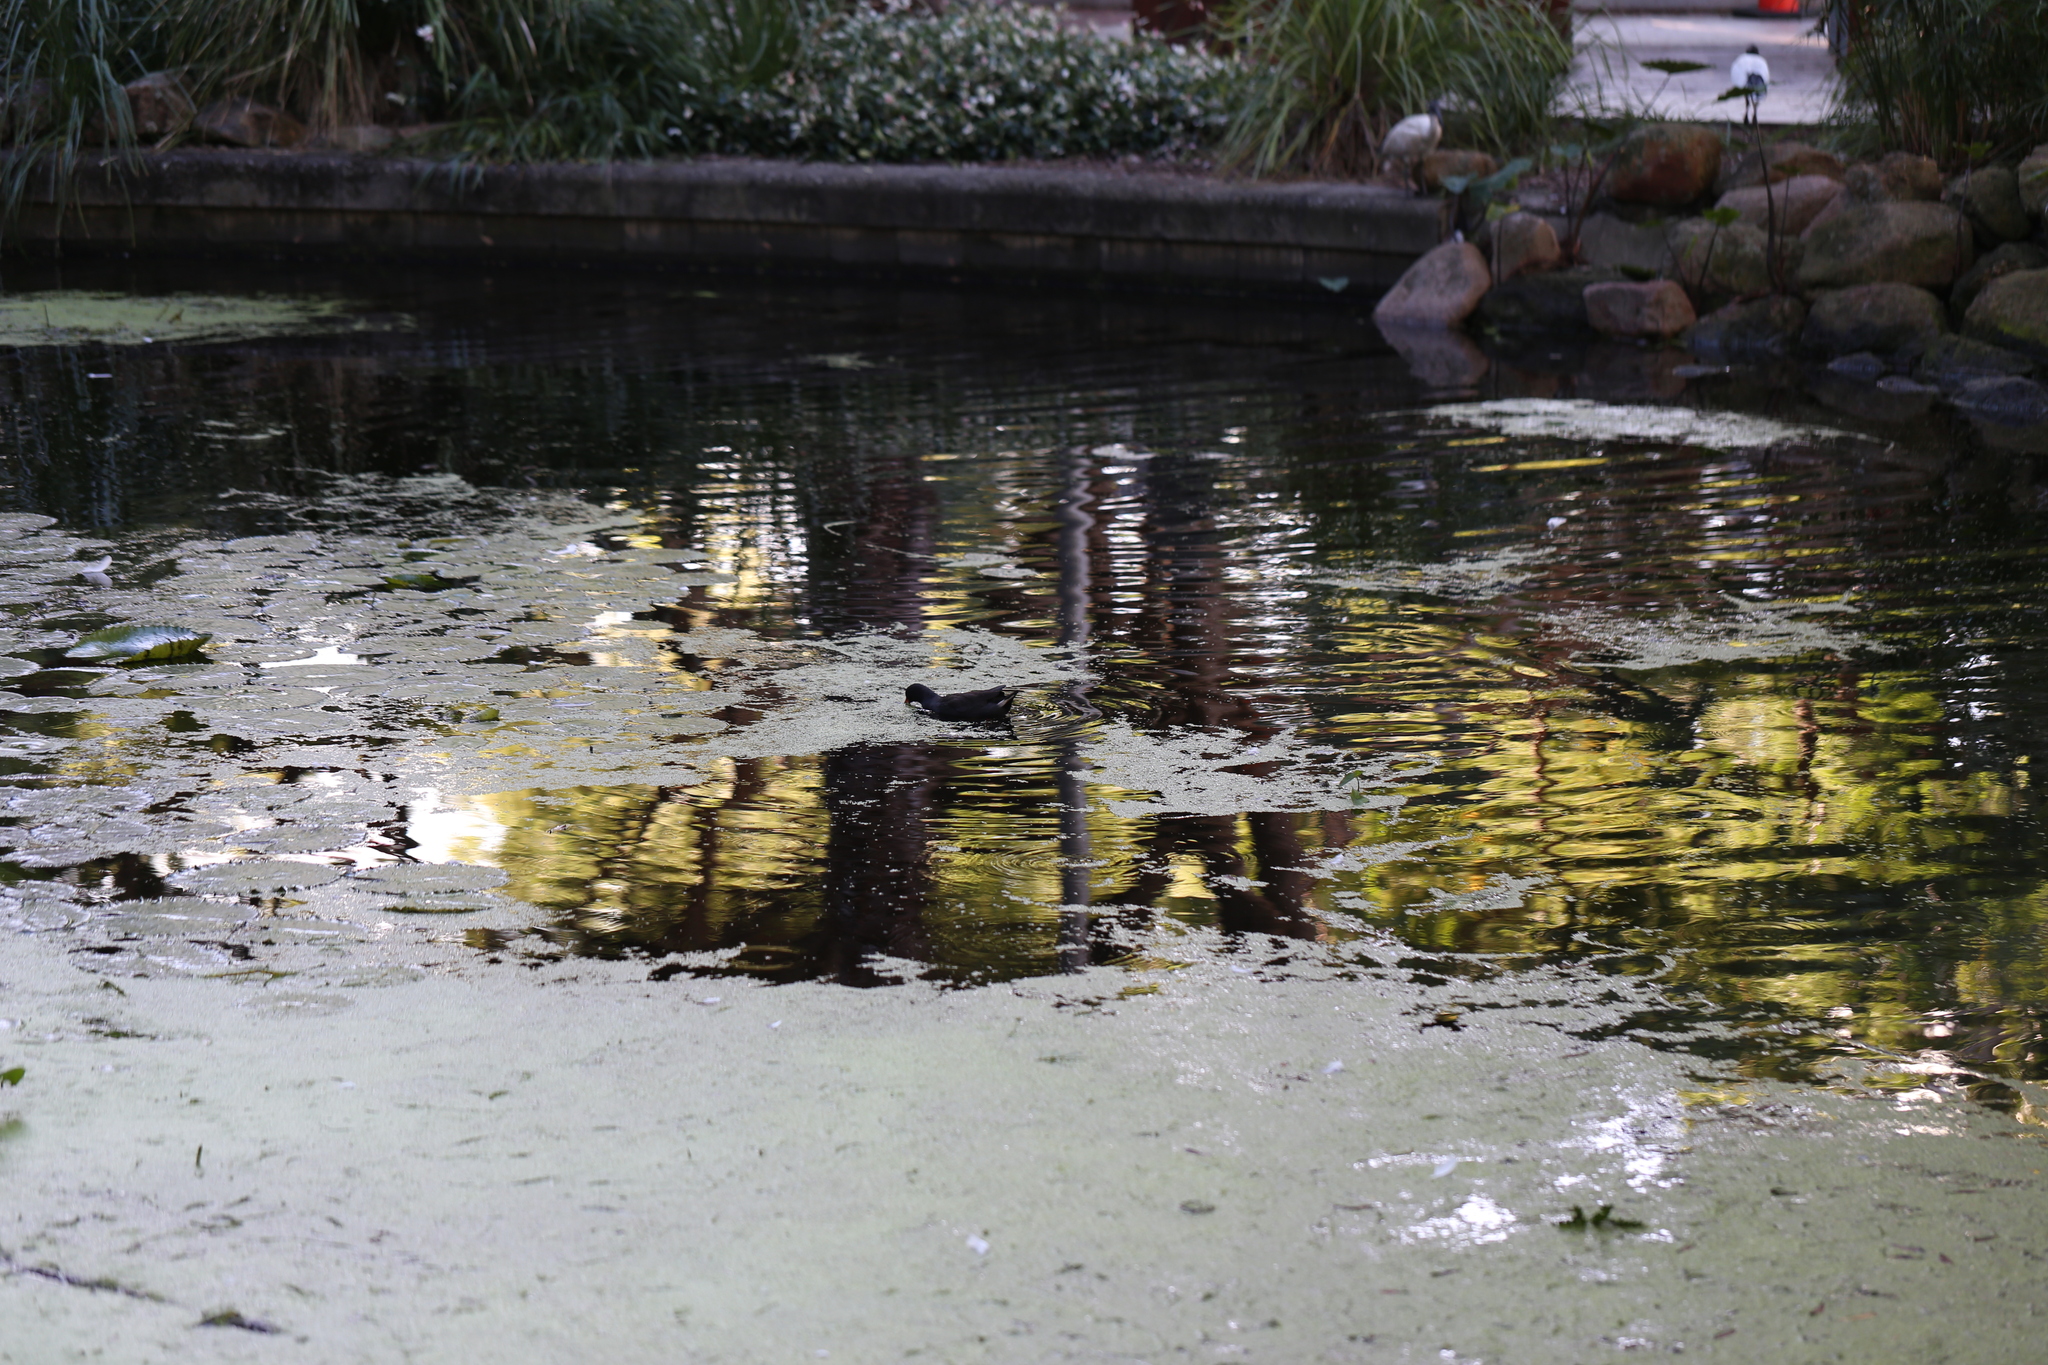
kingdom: Animalia
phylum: Chordata
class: Aves
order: Gruiformes
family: Rallidae
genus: Gallinula
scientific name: Gallinula tenebrosa
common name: Dusky moorhen
